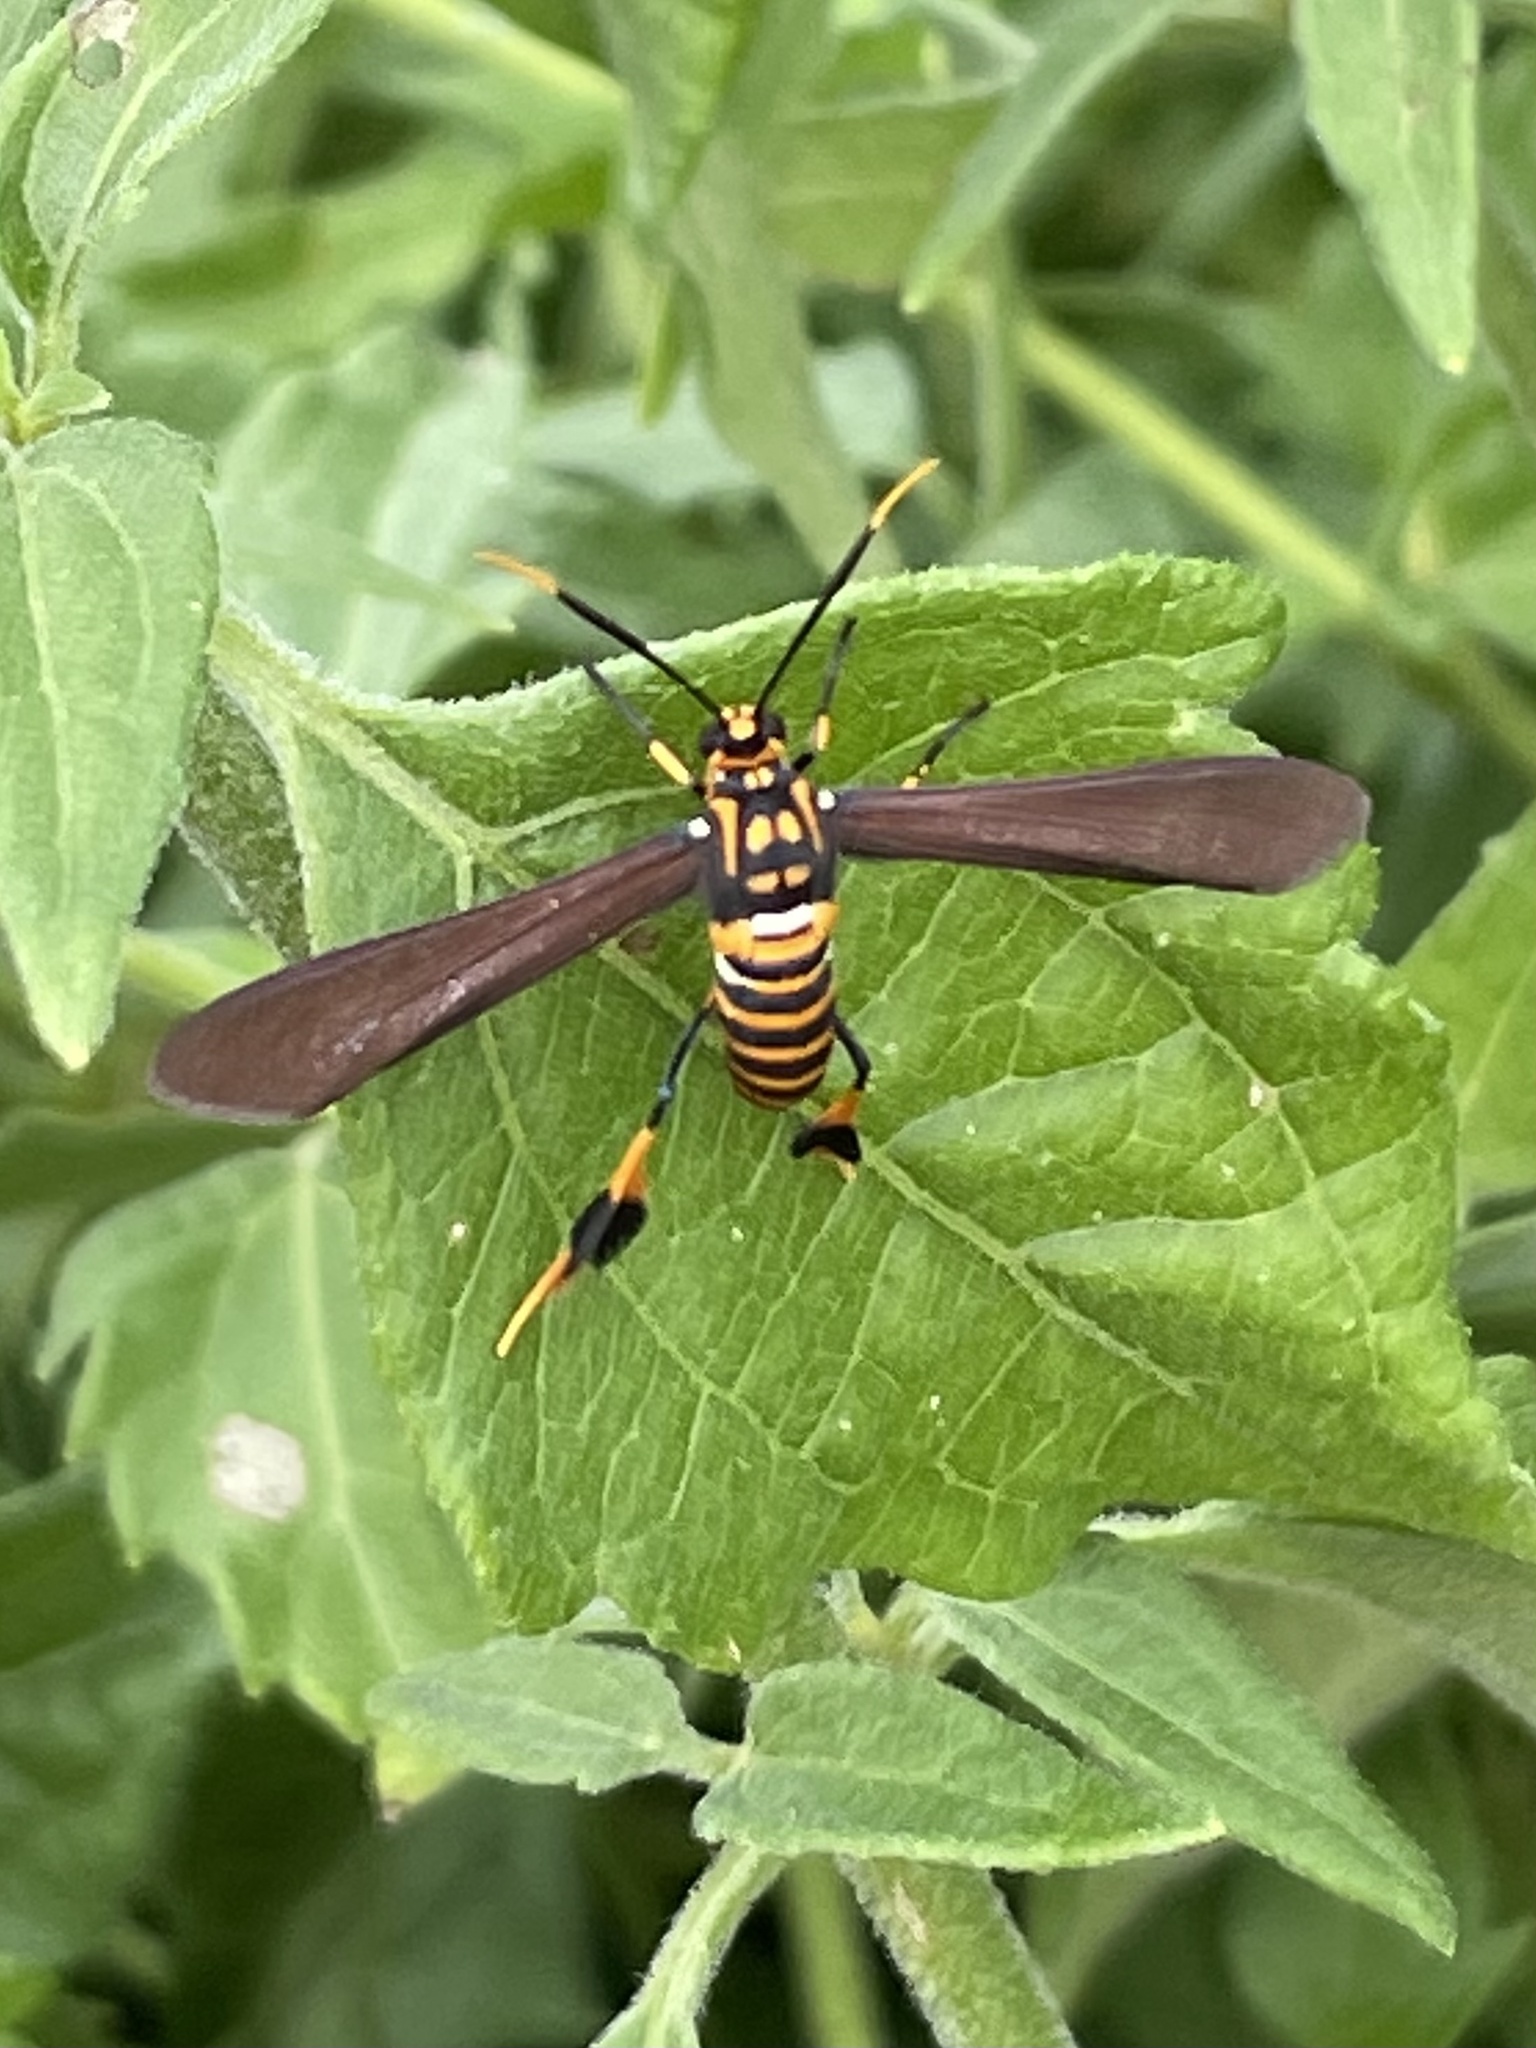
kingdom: Animalia
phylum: Arthropoda
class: Insecta
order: Lepidoptera
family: Erebidae
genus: Horama
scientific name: Horama panthalon
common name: Texas wasp moth
